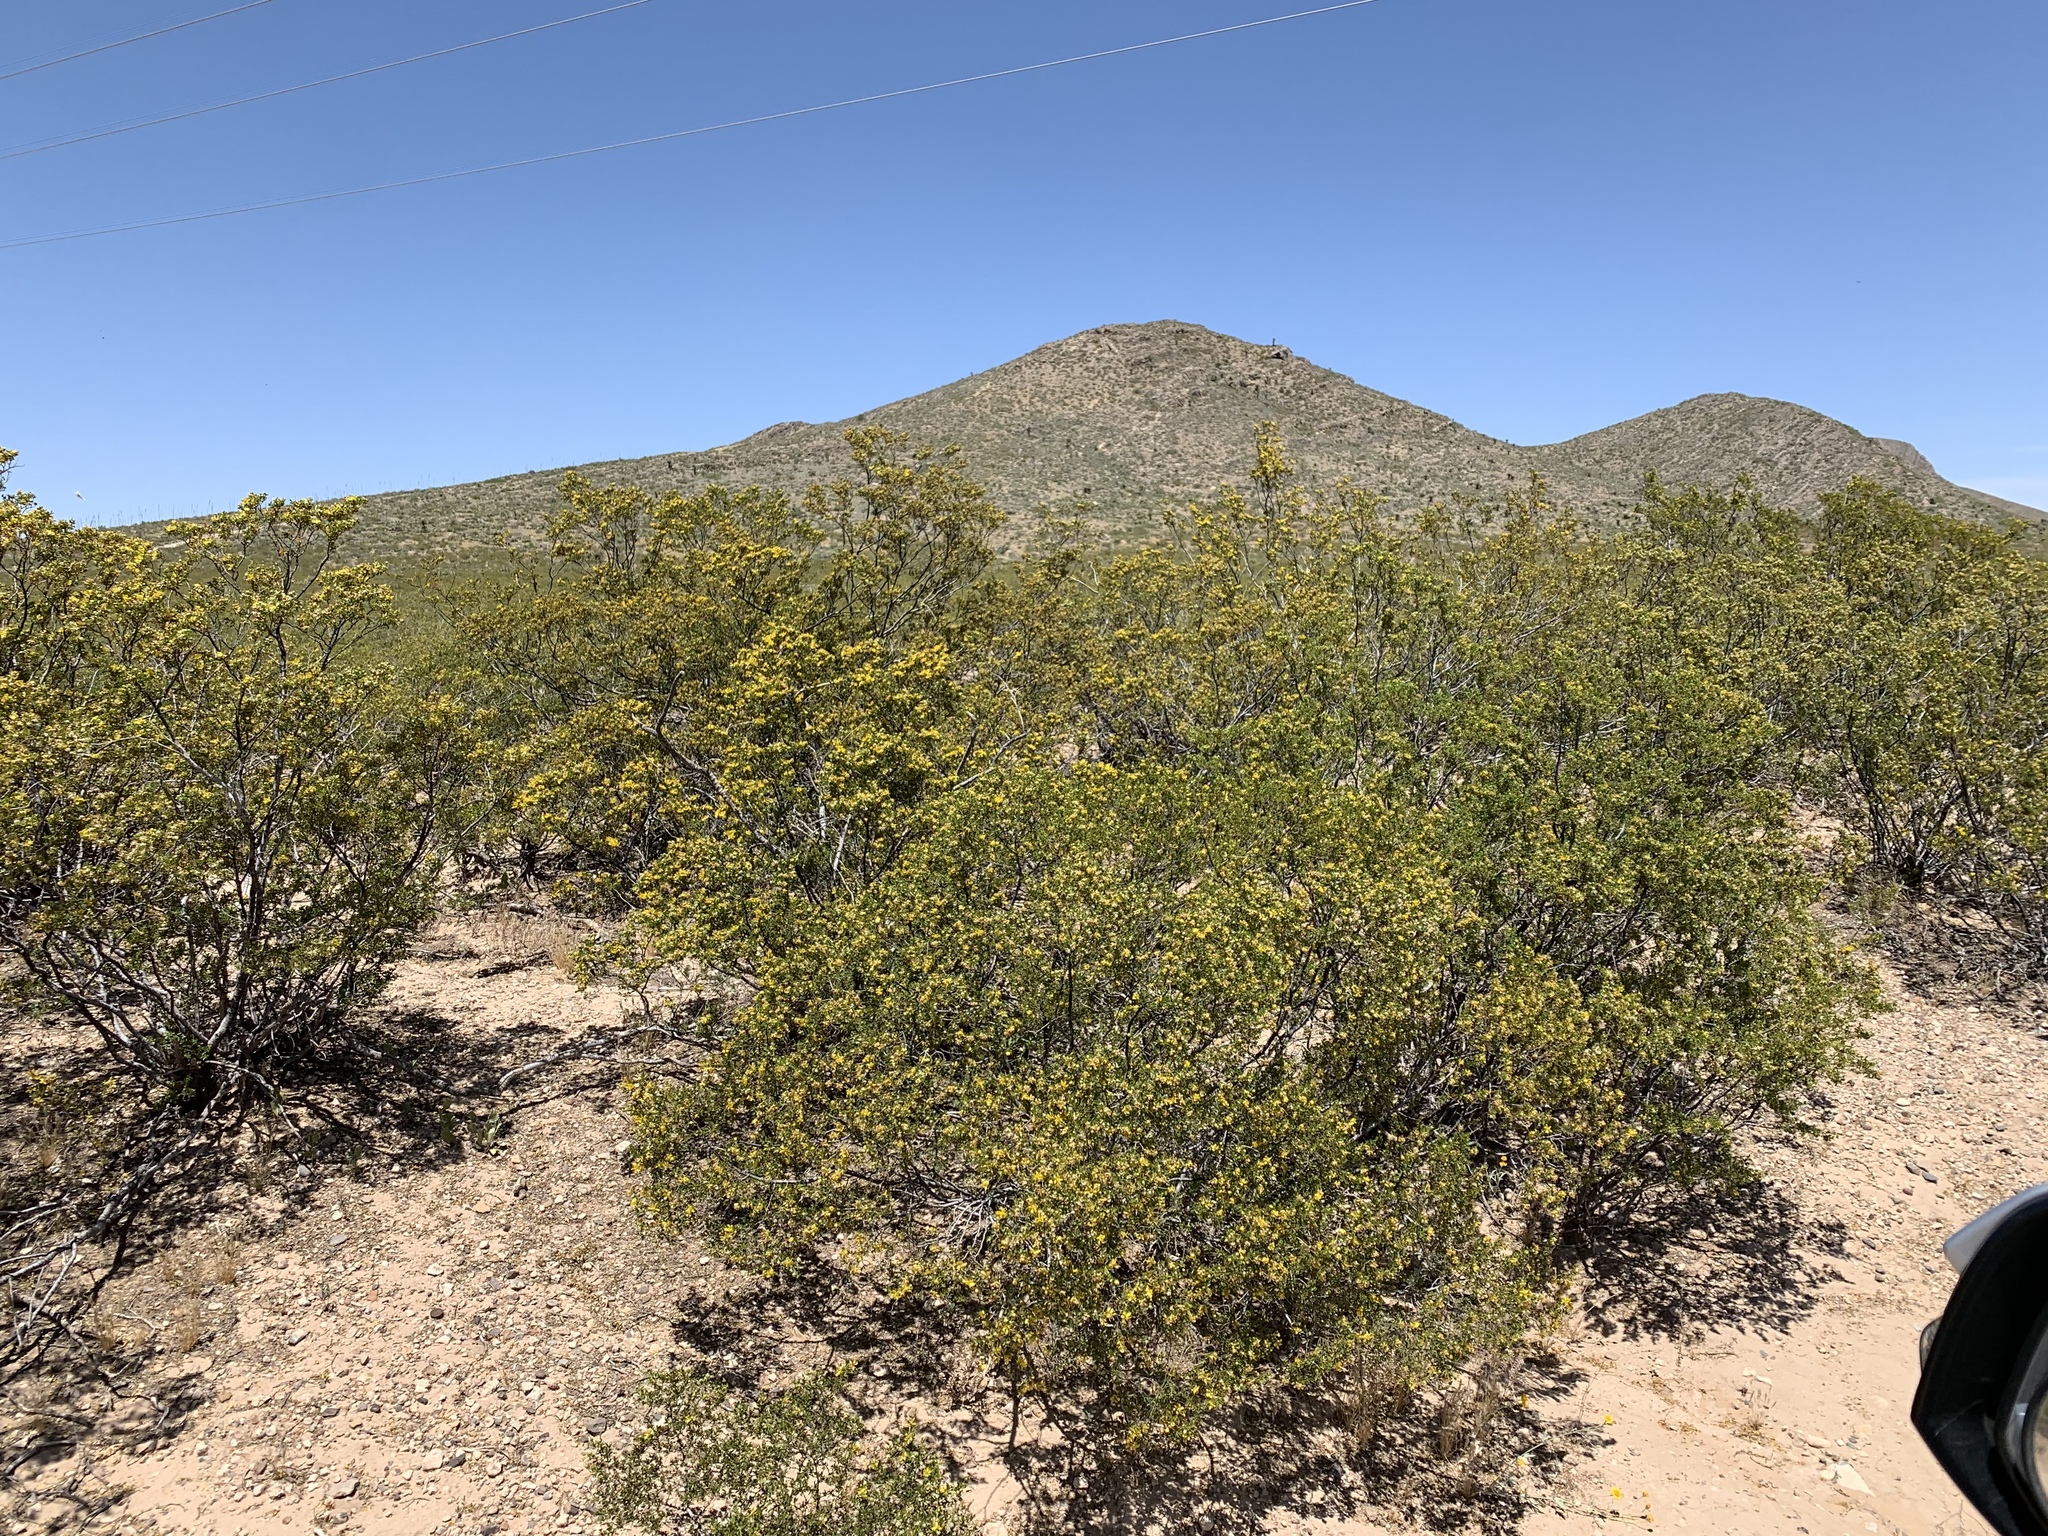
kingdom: Plantae
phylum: Tracheophyta
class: Magnoliopsida
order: Zygophyllales
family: Zygophyllaceae
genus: Larrea
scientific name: Larrea tridentata
